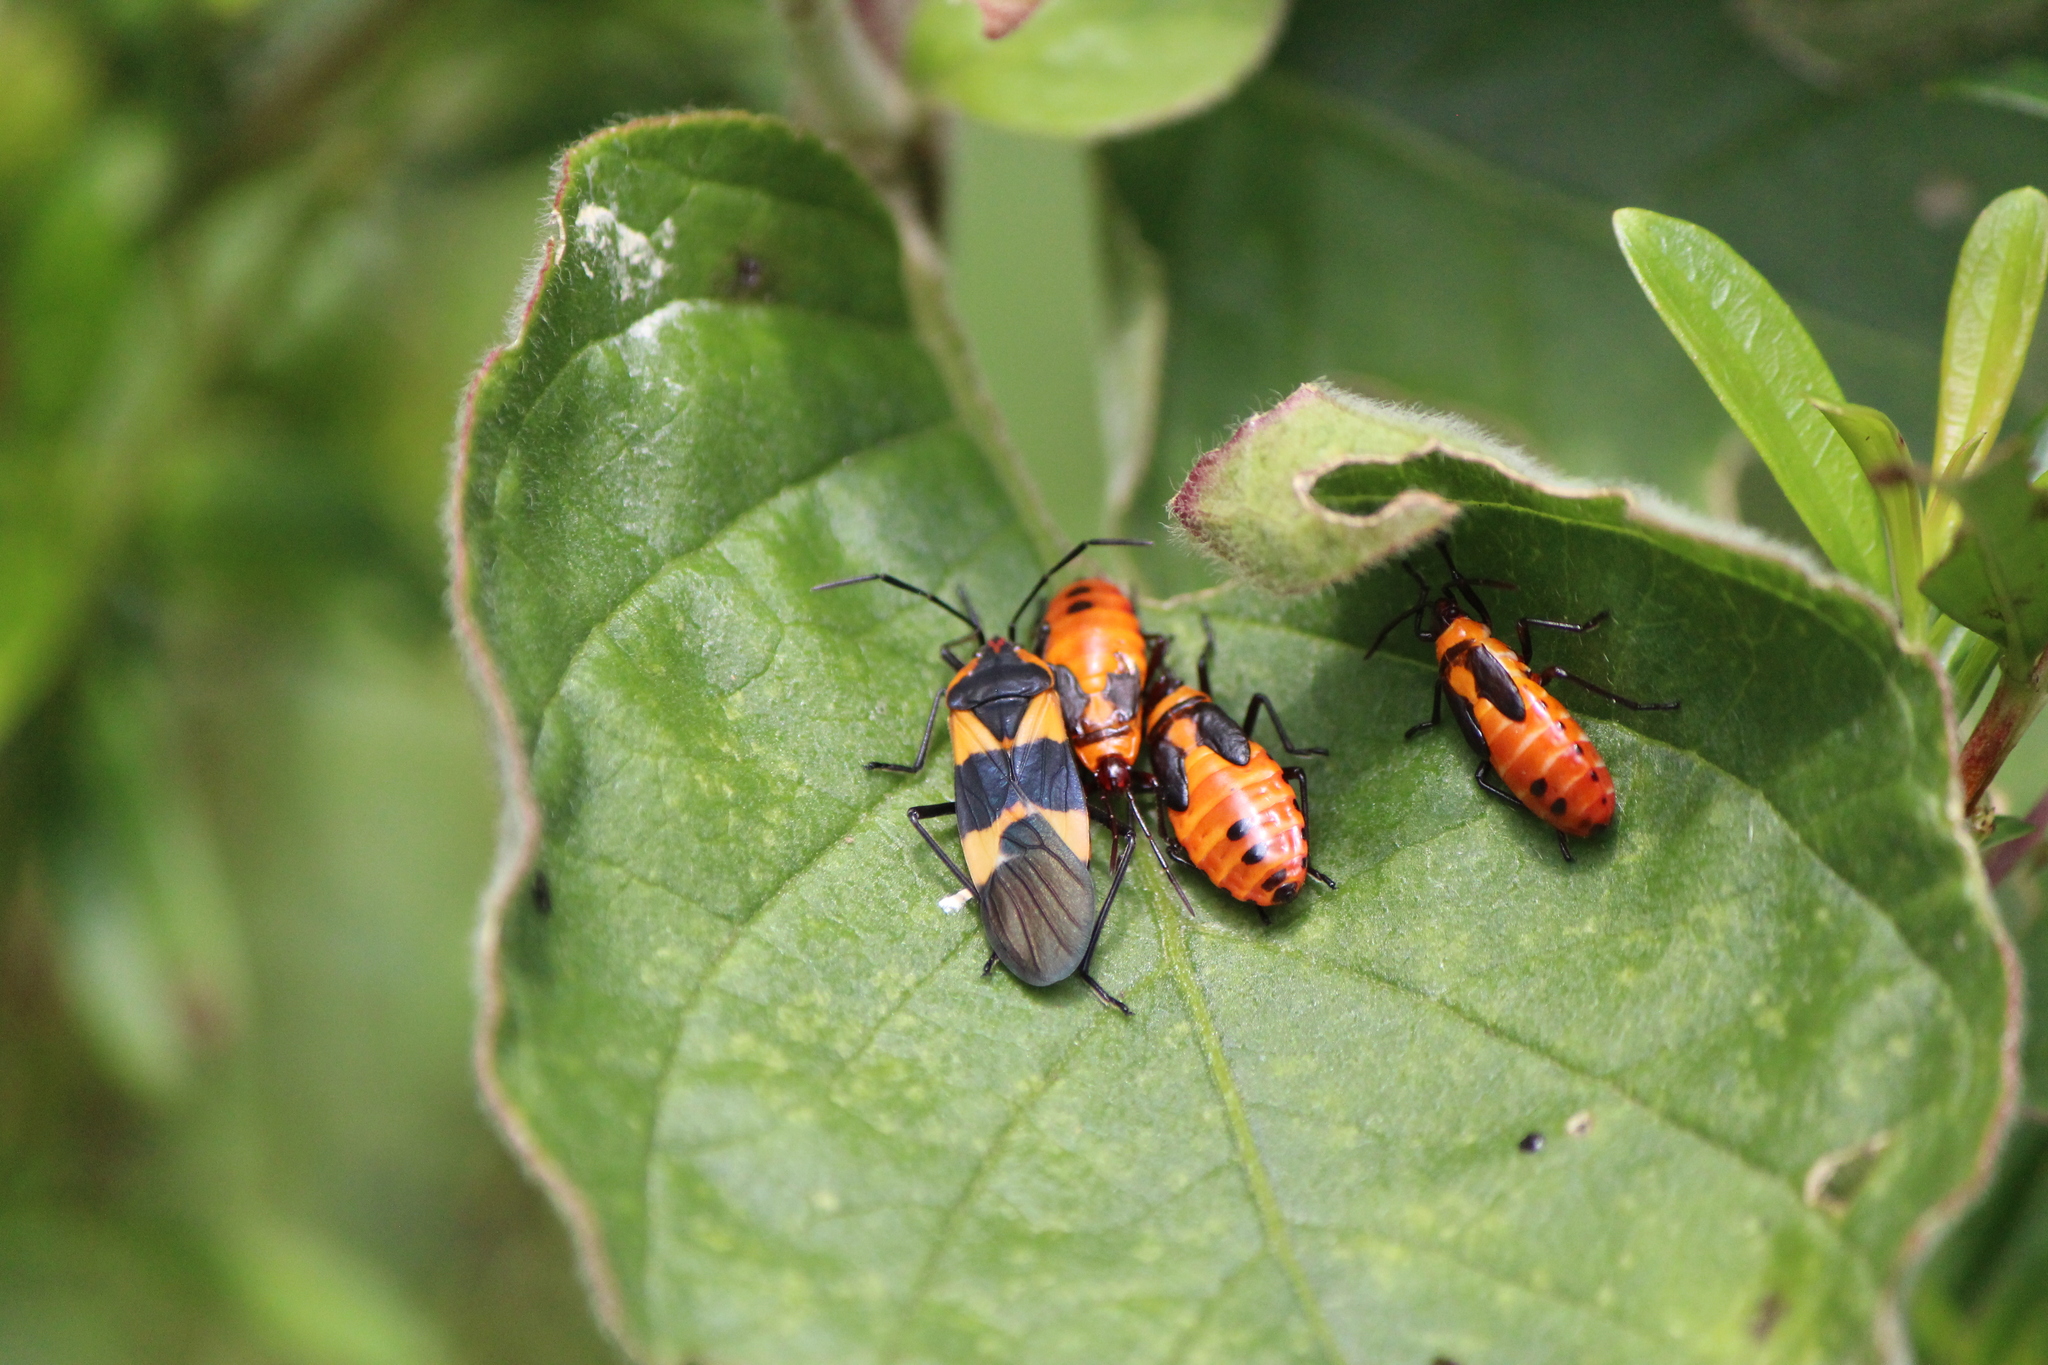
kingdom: Animalia
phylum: Arthropoda
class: Insecta
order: Hemiptera
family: Lygaeidae
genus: Oncopeltus
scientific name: Oncopeltus fasciatus
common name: Large milkweed bug
